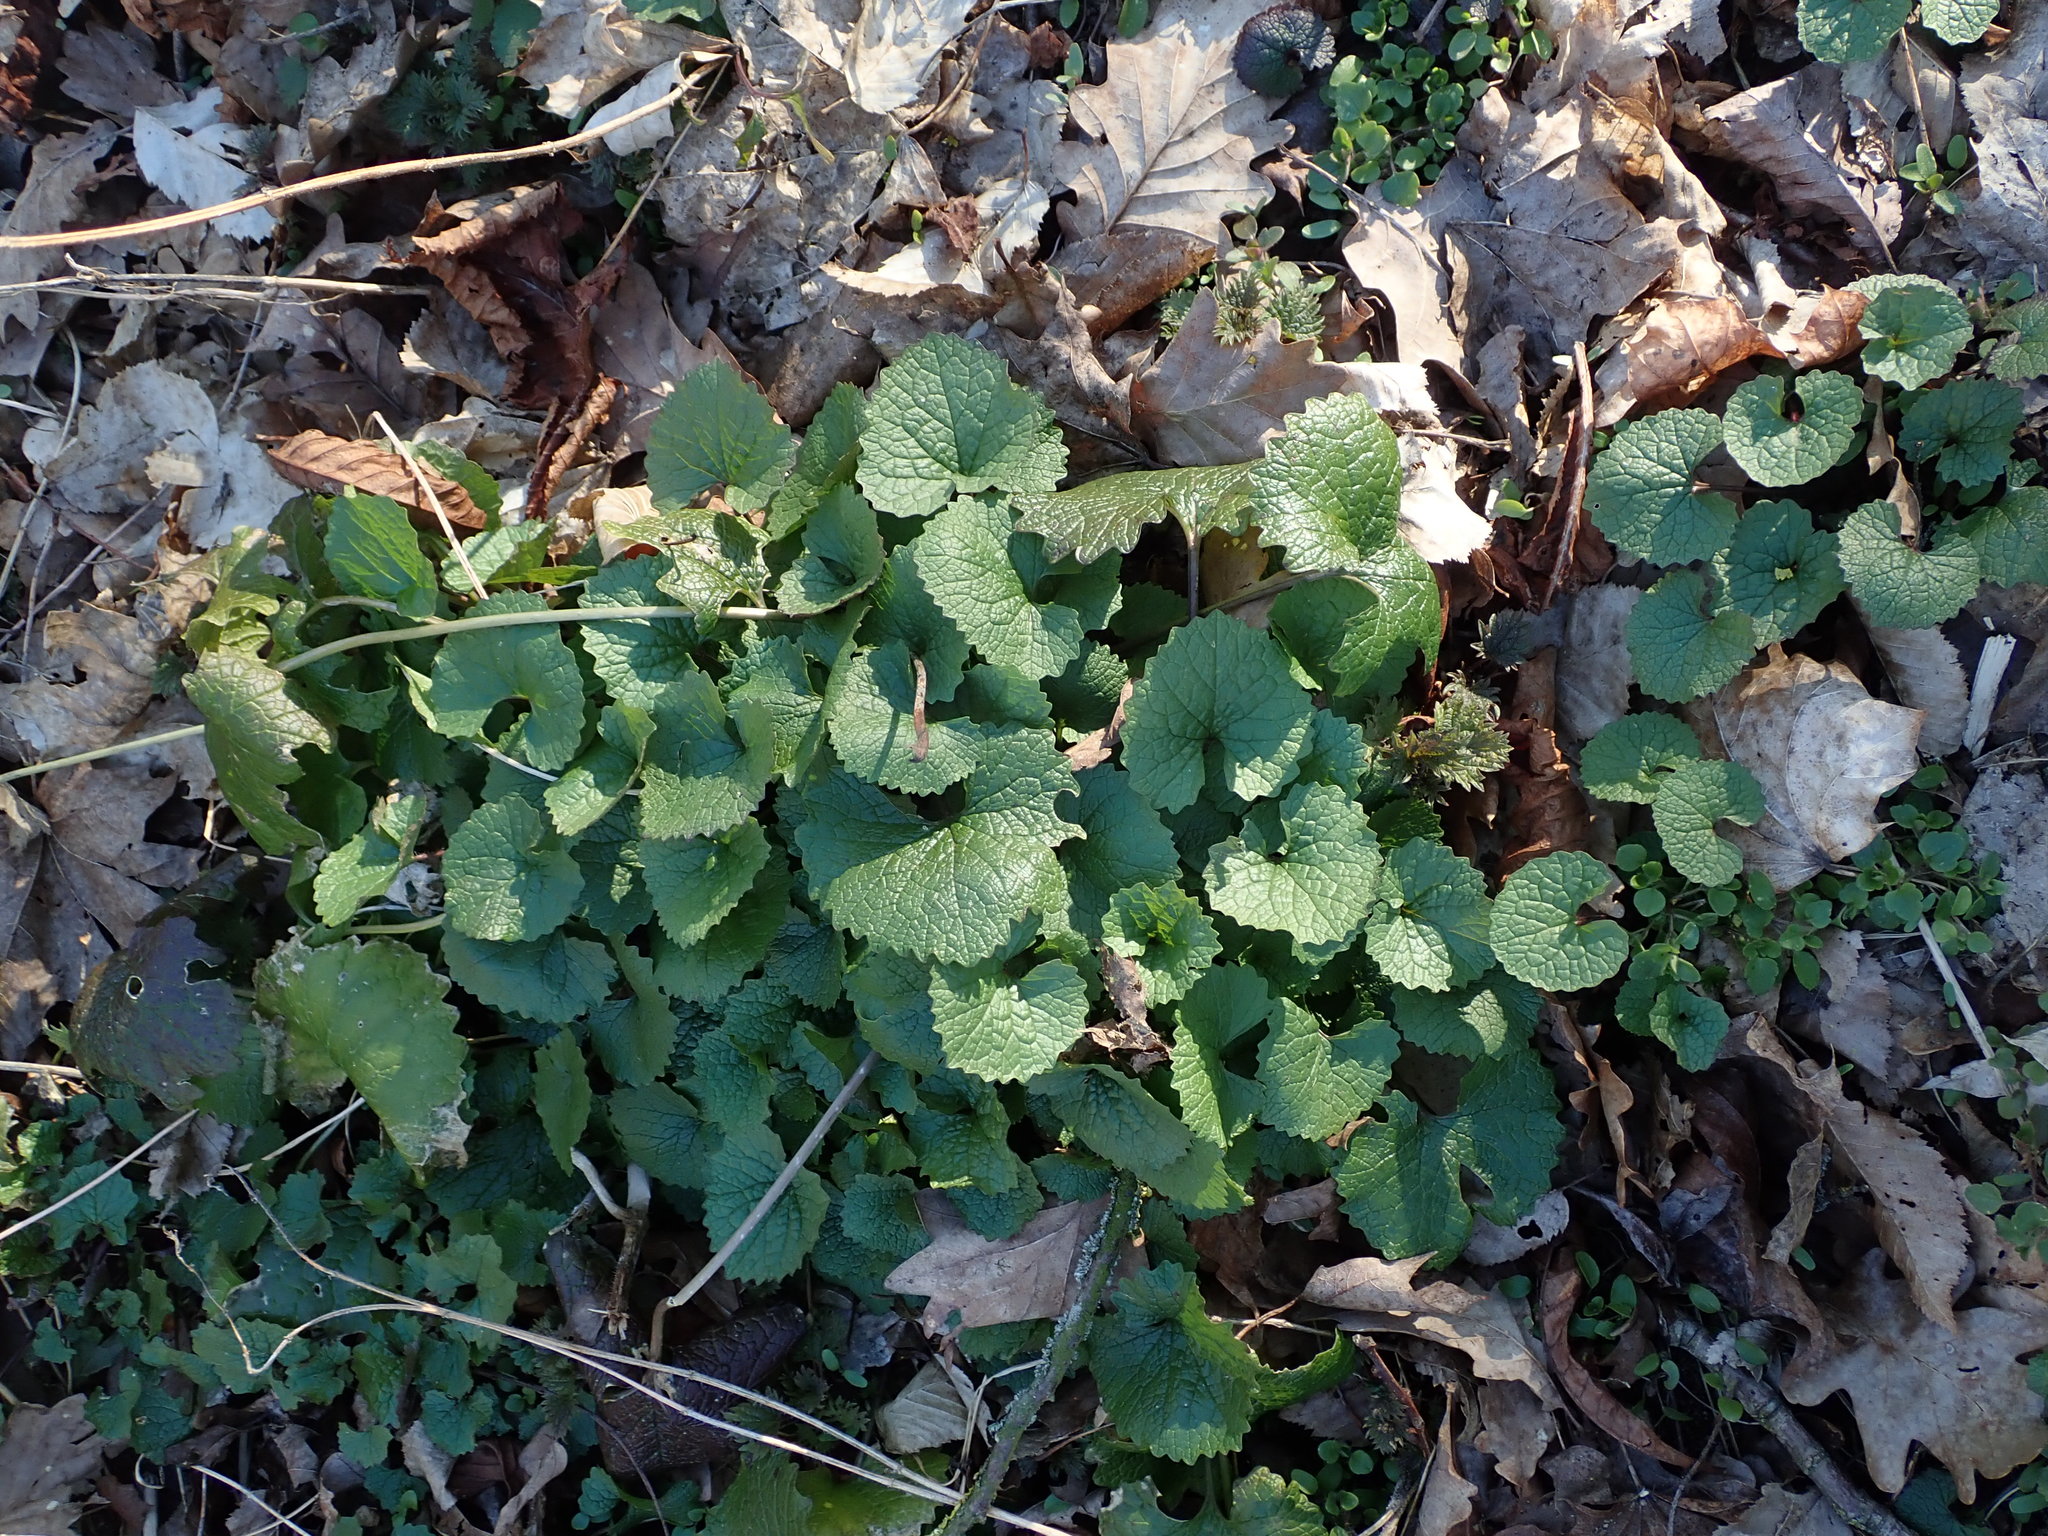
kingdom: Plantae
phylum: Tracheophyta
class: Magnoliopsida
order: Brassicales
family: Brassicaceae
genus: Alliaria
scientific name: Alliaria petiolata
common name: Garlic mustard
